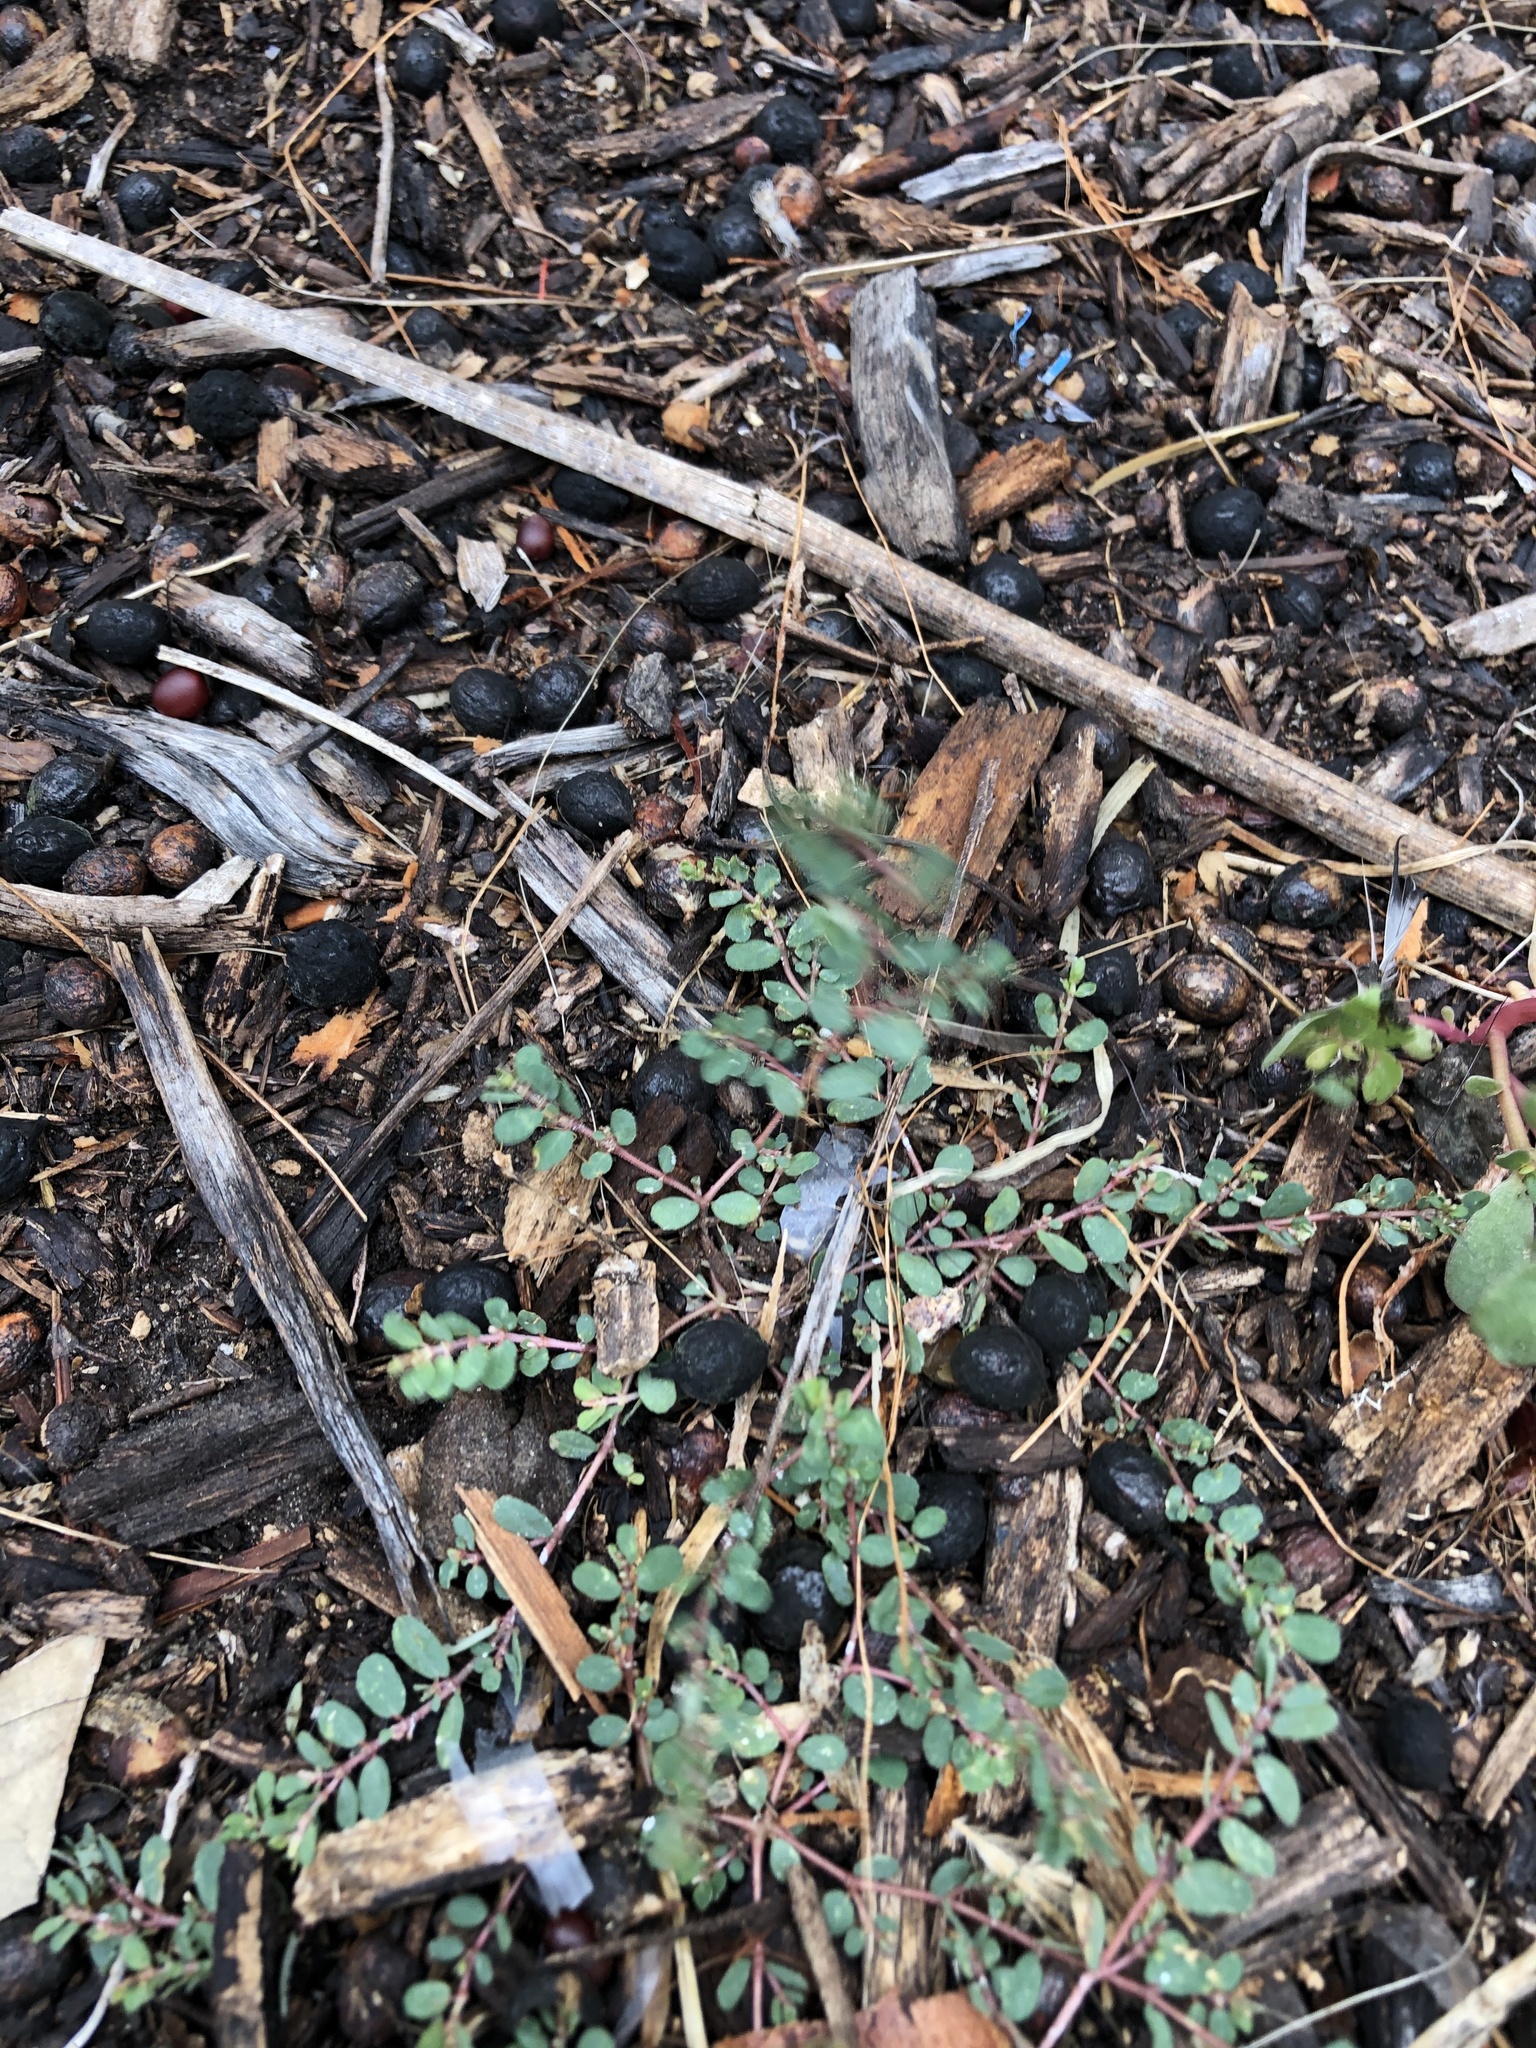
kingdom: Plantae
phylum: Tracheophyta
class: Magnoliopsida
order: Malpighiales
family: Euphorbiaceae
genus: Euphorbia
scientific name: Euphorbia prostrata
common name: Prostrate sandmat
